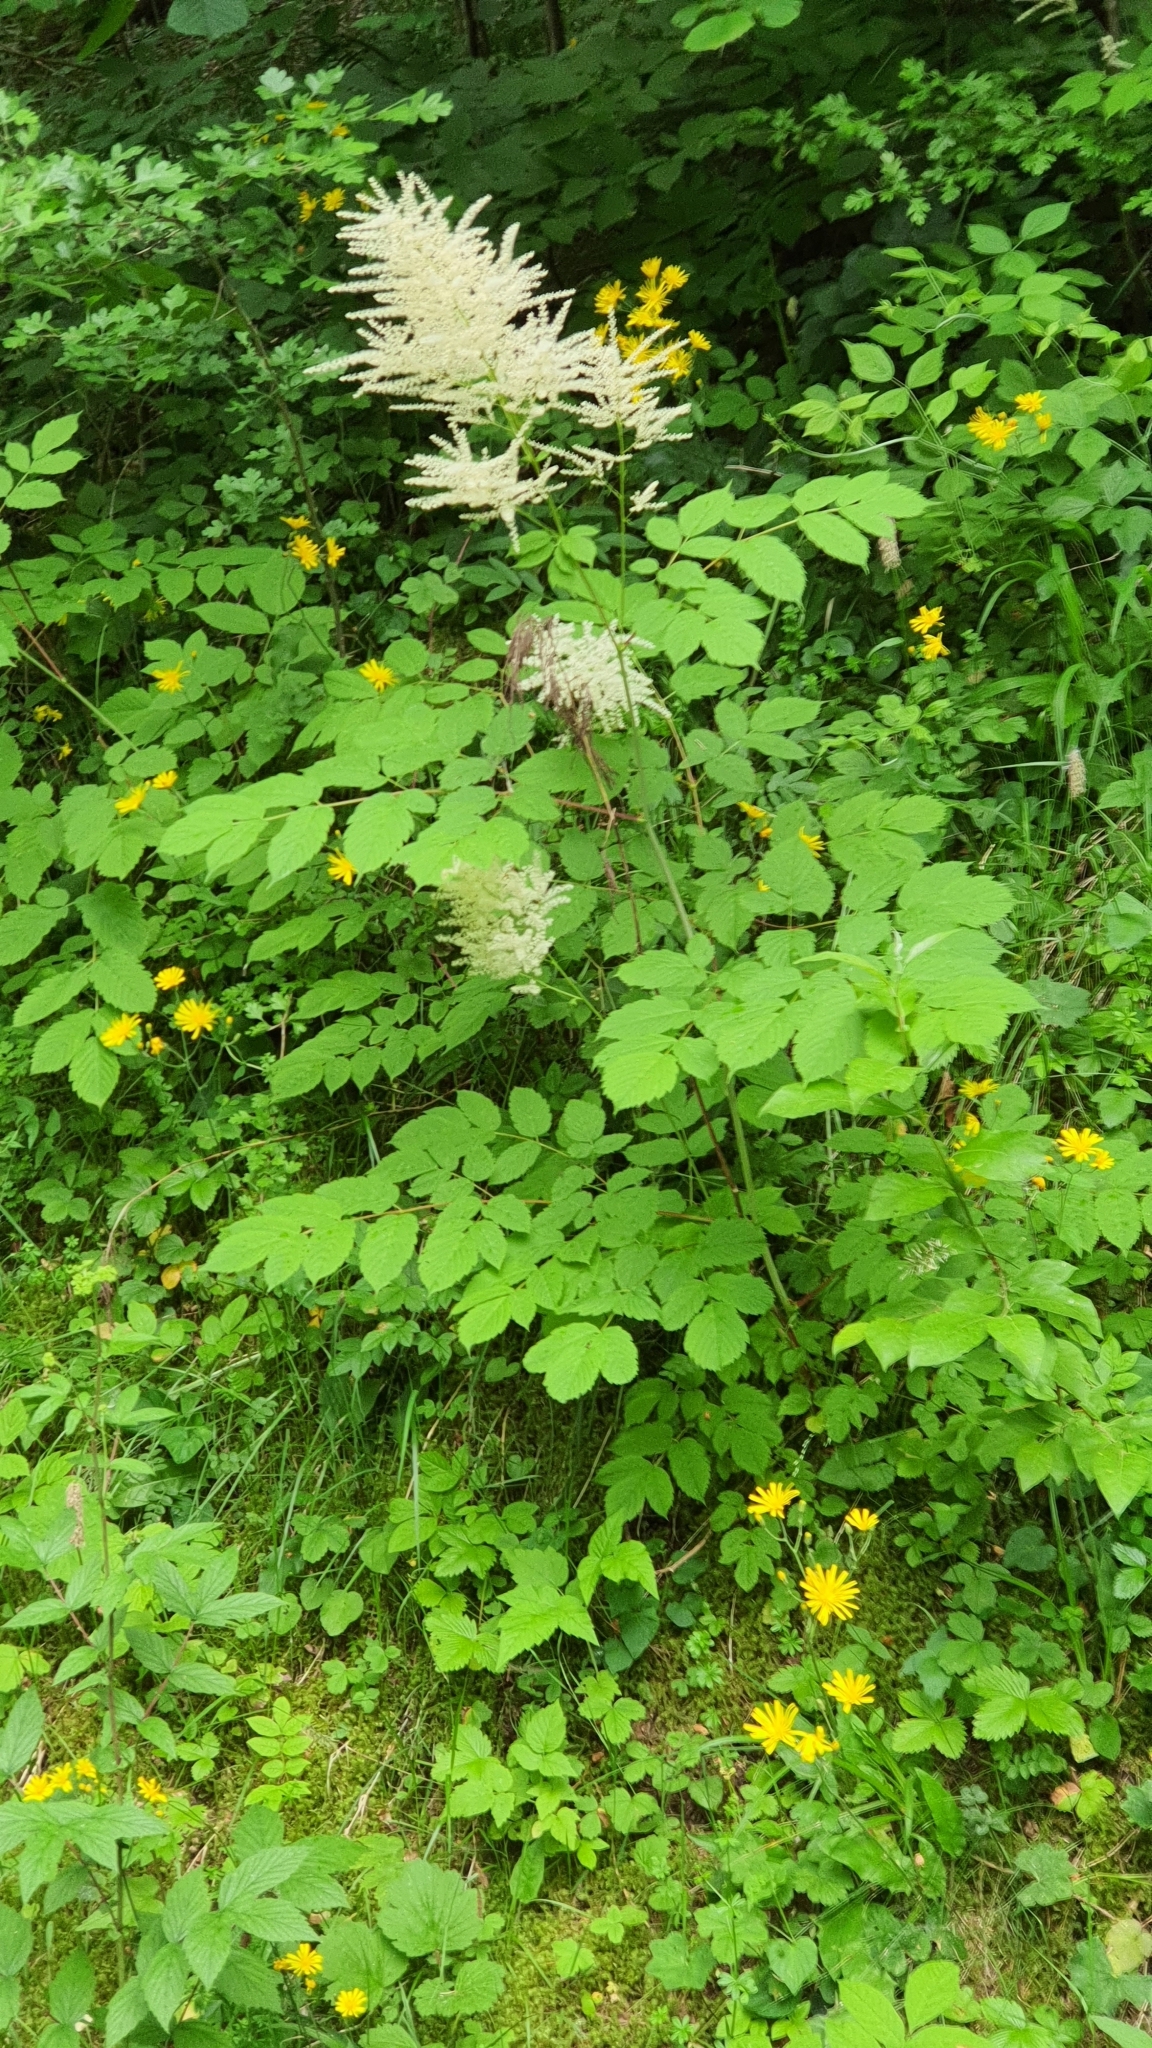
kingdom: Plantae
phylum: Tracheophyta
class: Magnoliopsida
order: Rosales
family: Rosaceae
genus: Aruncus
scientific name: Aruncus dioicus
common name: Buck's-beard
